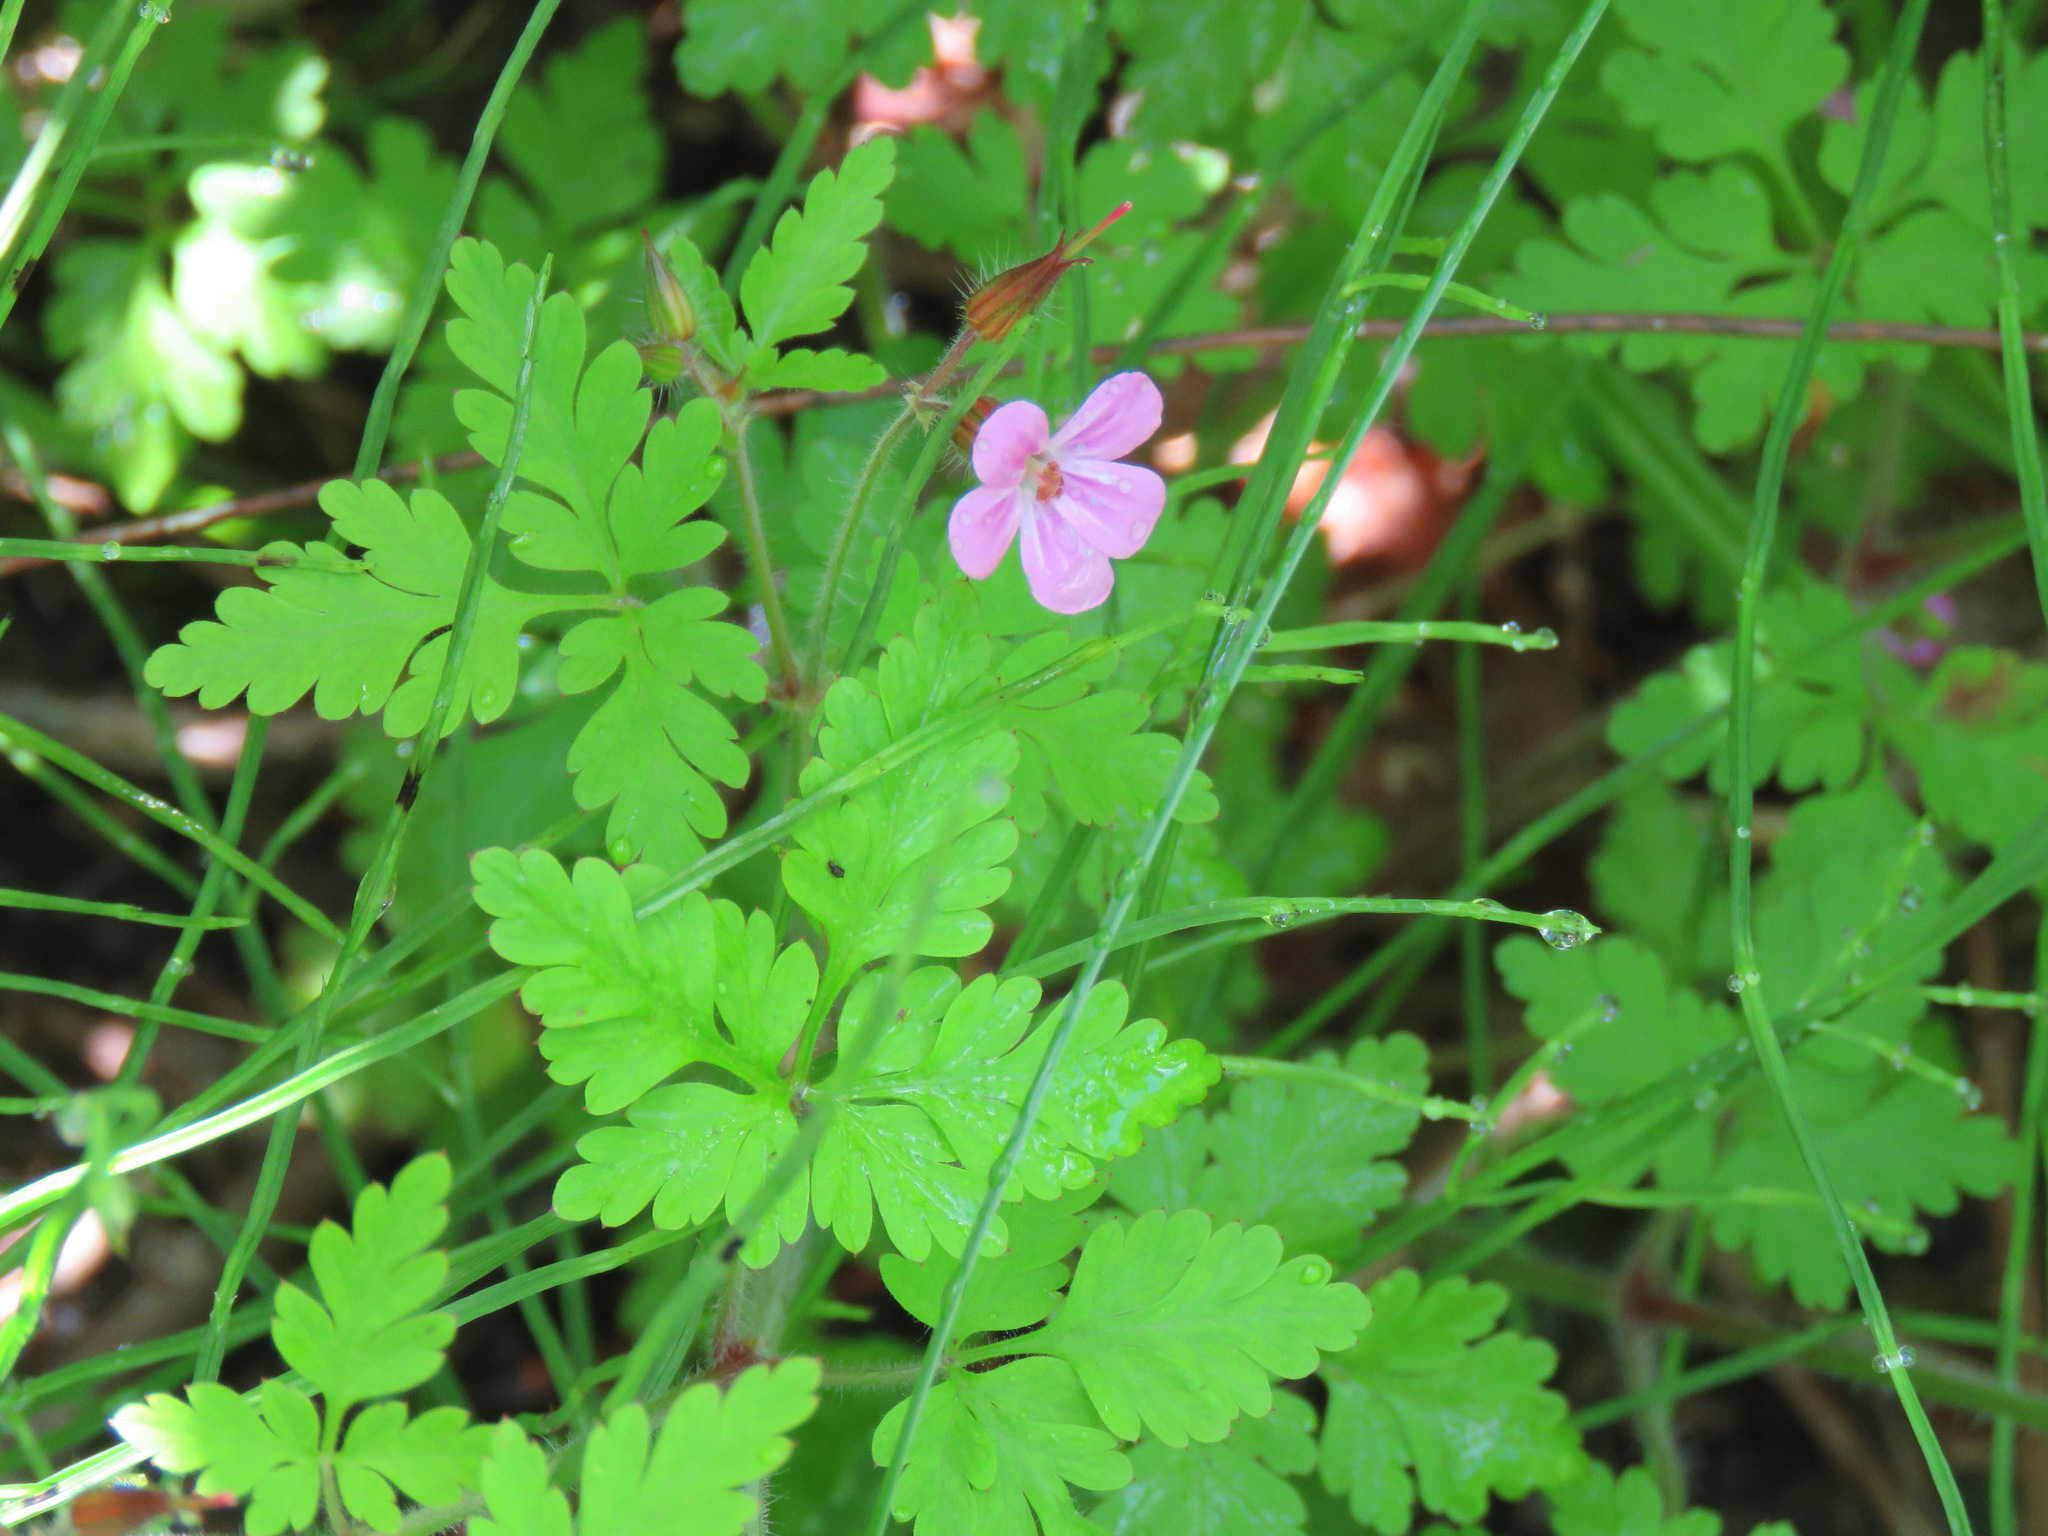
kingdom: Plantae
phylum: Tracheophyta
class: Magnoliopsida
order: Geraniales
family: Geraniaceae
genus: Geranium
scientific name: Geranium robertianum
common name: Herb-robert
